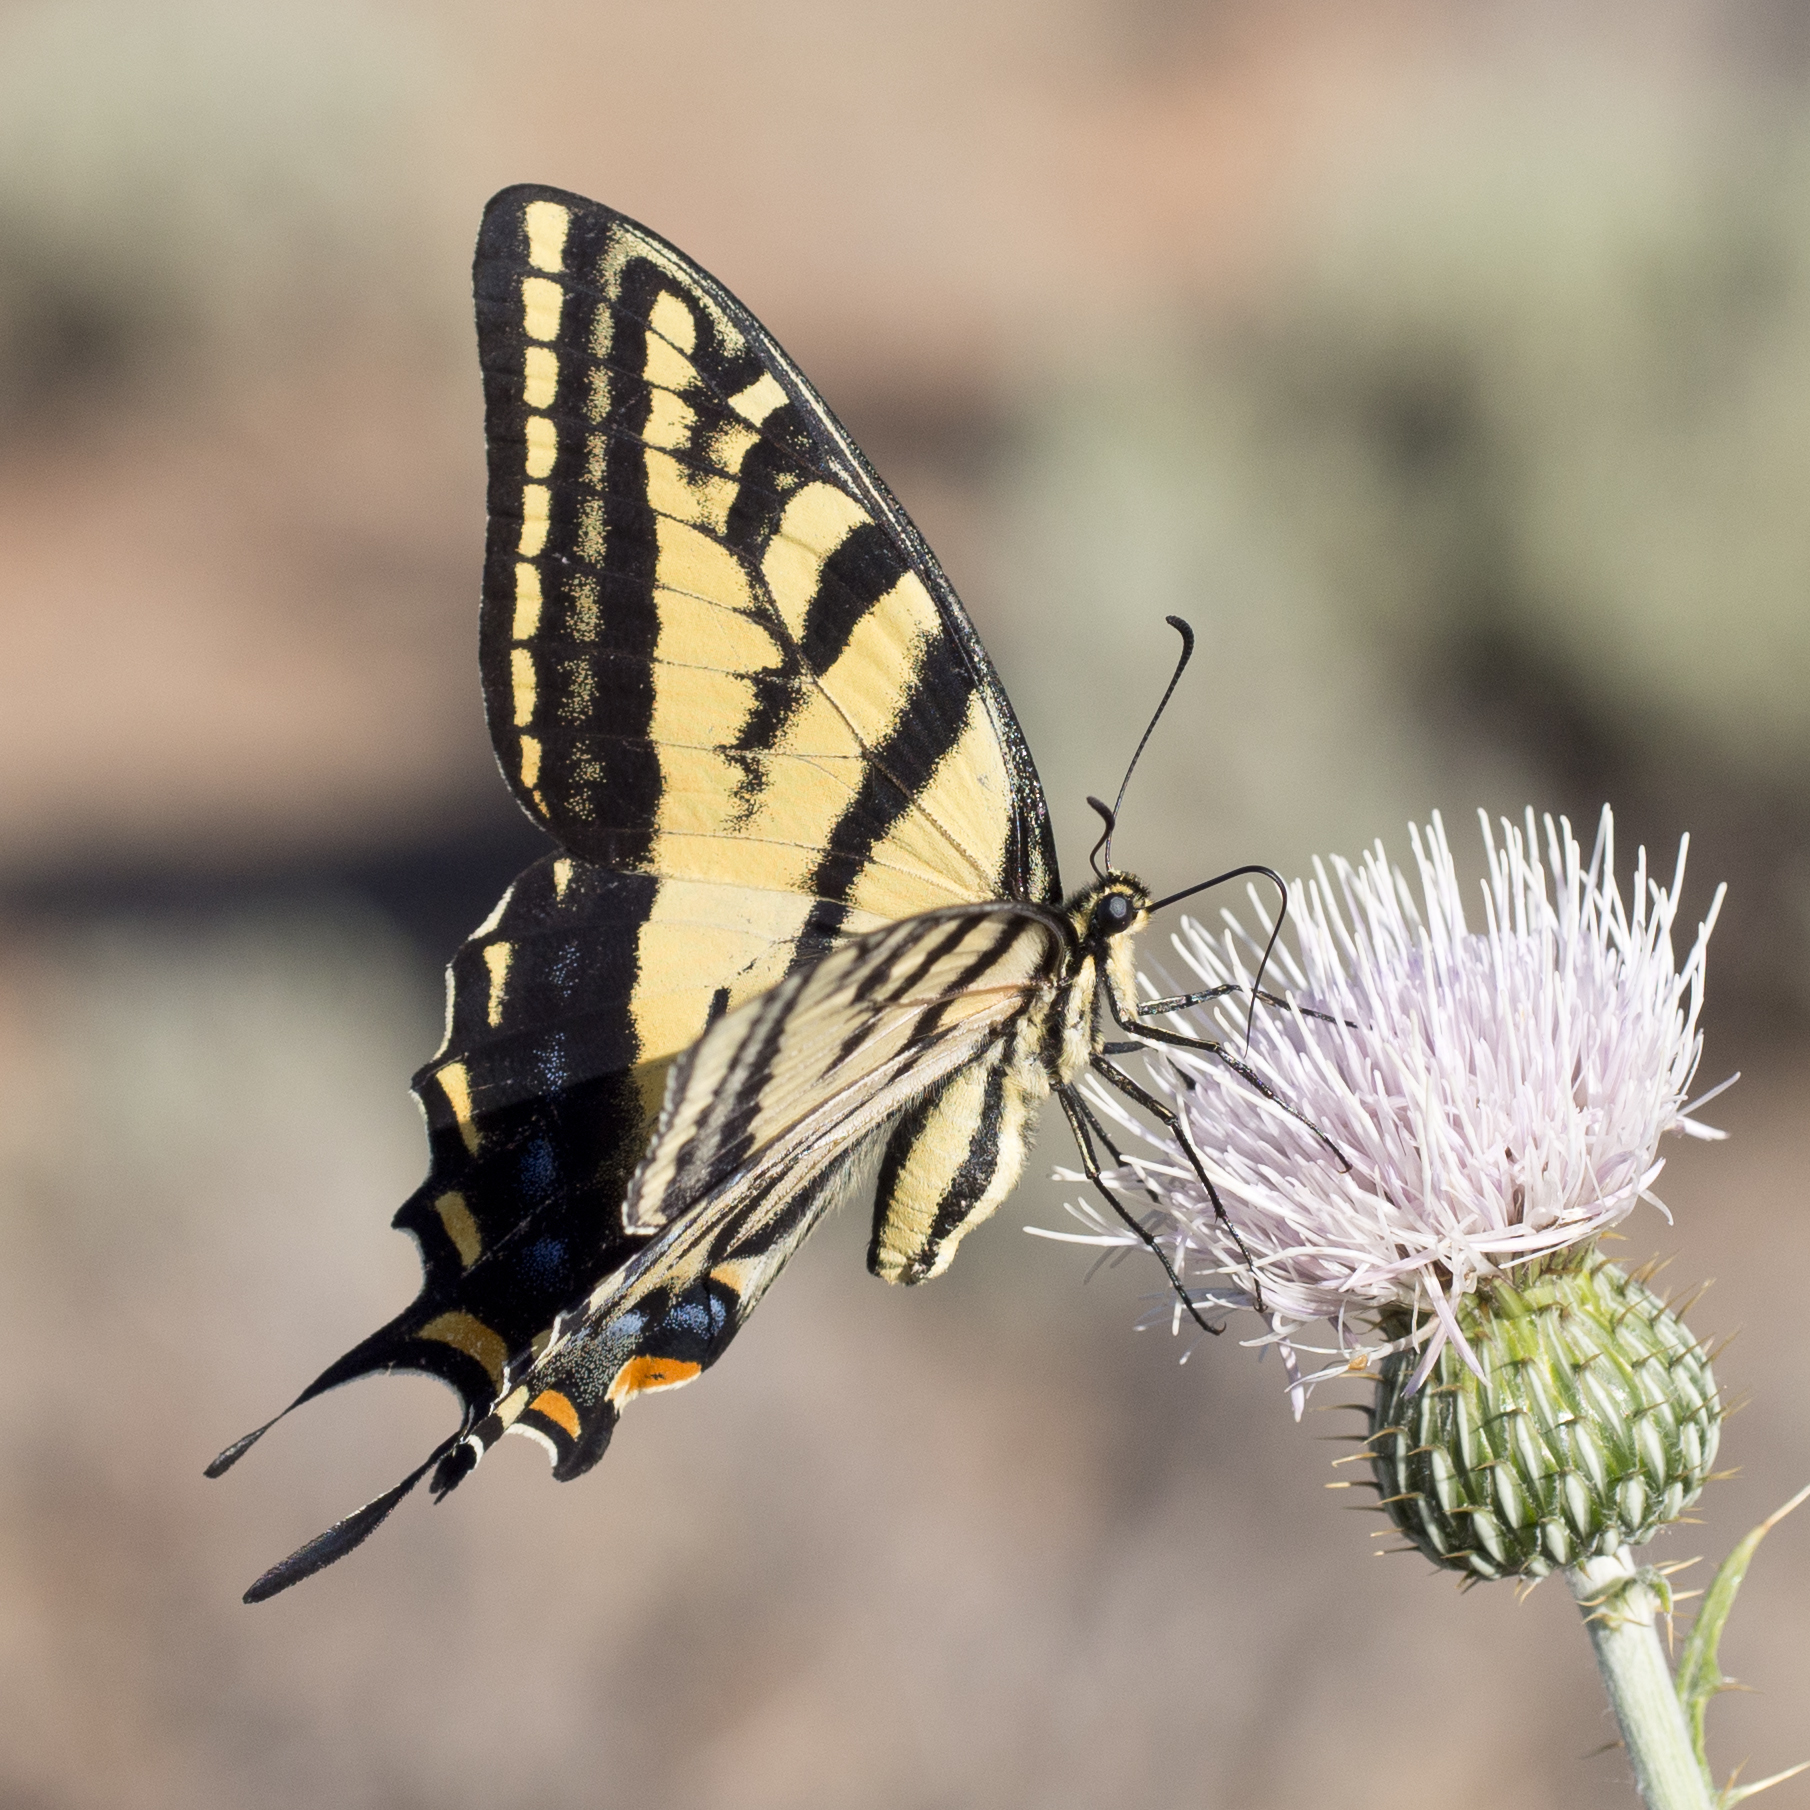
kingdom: Animalia
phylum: Arthropoda
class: Insecta
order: Lepidoptera
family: Papilionidae
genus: Papilio
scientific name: Papilio multicaudata
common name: Two-tailed tiger swallowtail
